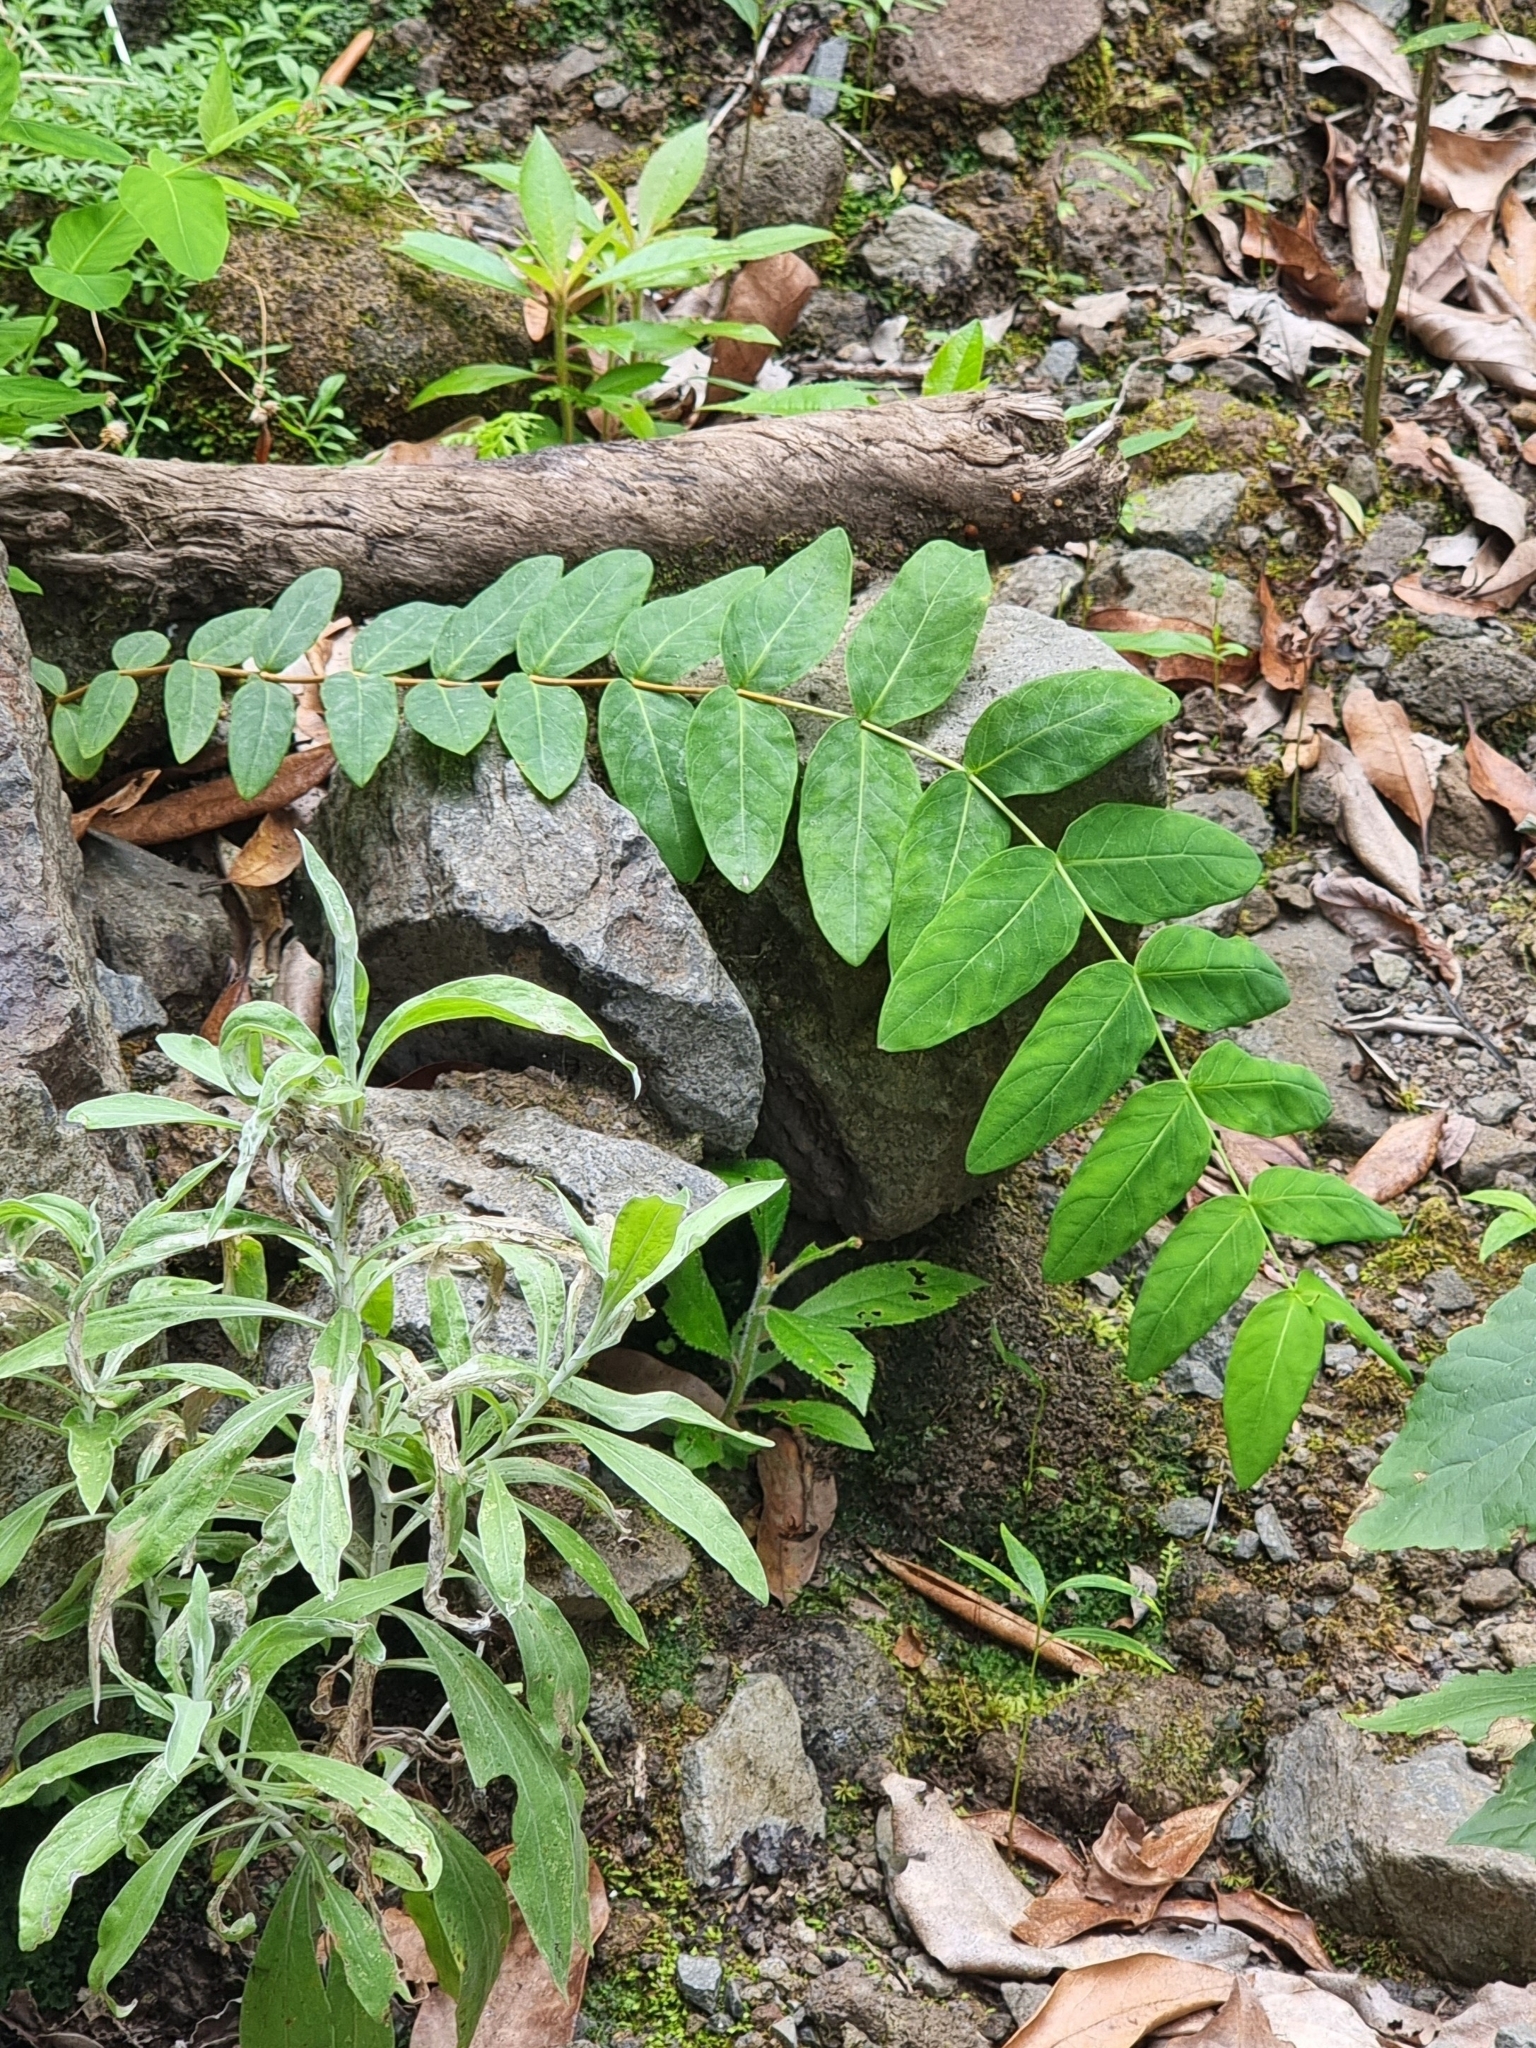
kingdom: Plantae
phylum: Tracheophyta
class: Magnoliopsida
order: Malpighiales
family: Hypericaceae
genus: Hypericum
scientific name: Hypericum grandifolium
